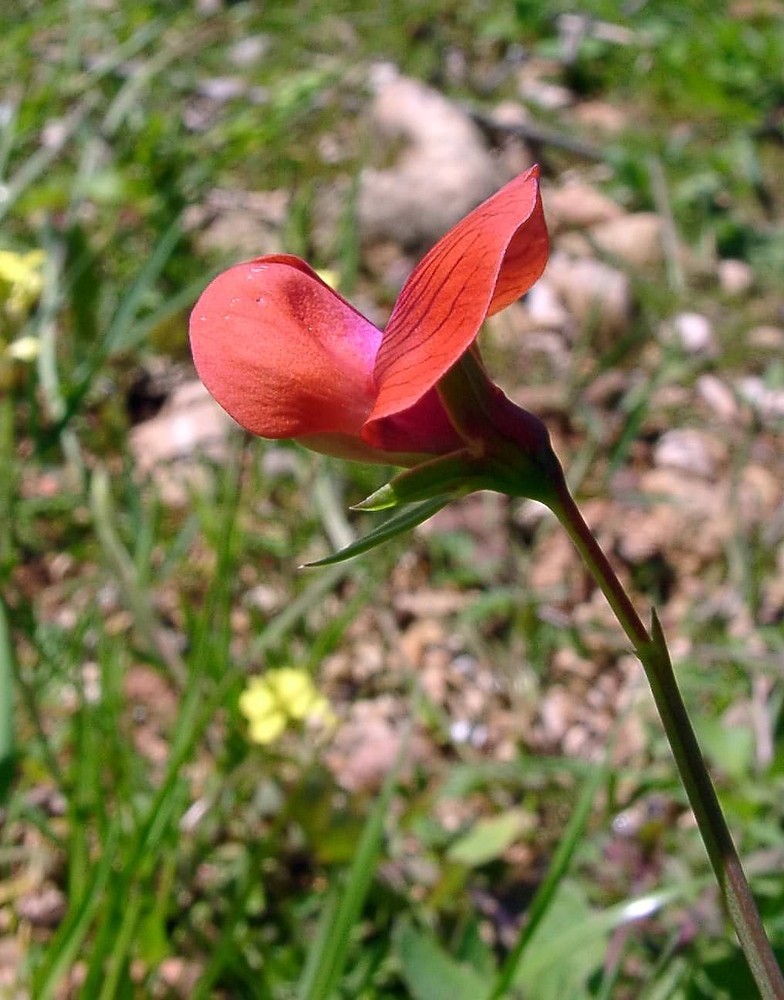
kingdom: Plantae
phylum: Tracheophyta
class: Magnoliopsida
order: Fabales
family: Fabaceae
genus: Lathyrus
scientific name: Lathyrus cicera
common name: Red vetchling
